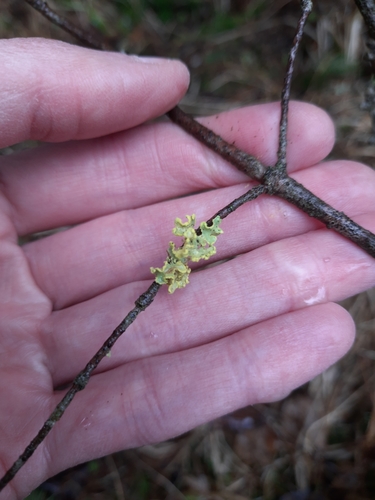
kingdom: Fungi
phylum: Ascomycota
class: Lecanoromycetes
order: Lecanorales
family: Parmeliaceae
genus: Vulpicida
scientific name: Vulpicida pinastri
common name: Powdered sunshine lichen
